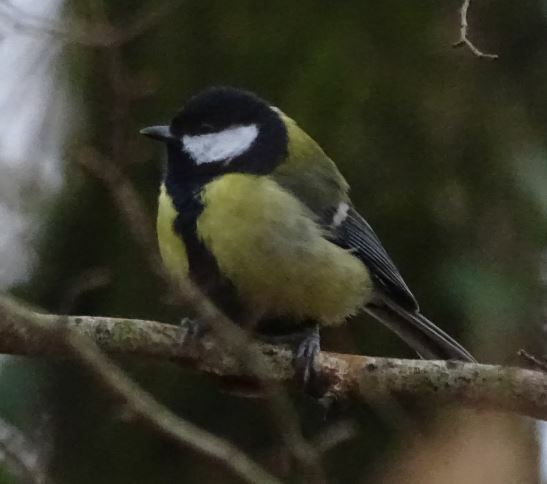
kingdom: Animalia
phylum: Chordata
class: Aves
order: Passeriformes
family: Paridae
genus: Parus
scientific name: Parus major
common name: Great tit
